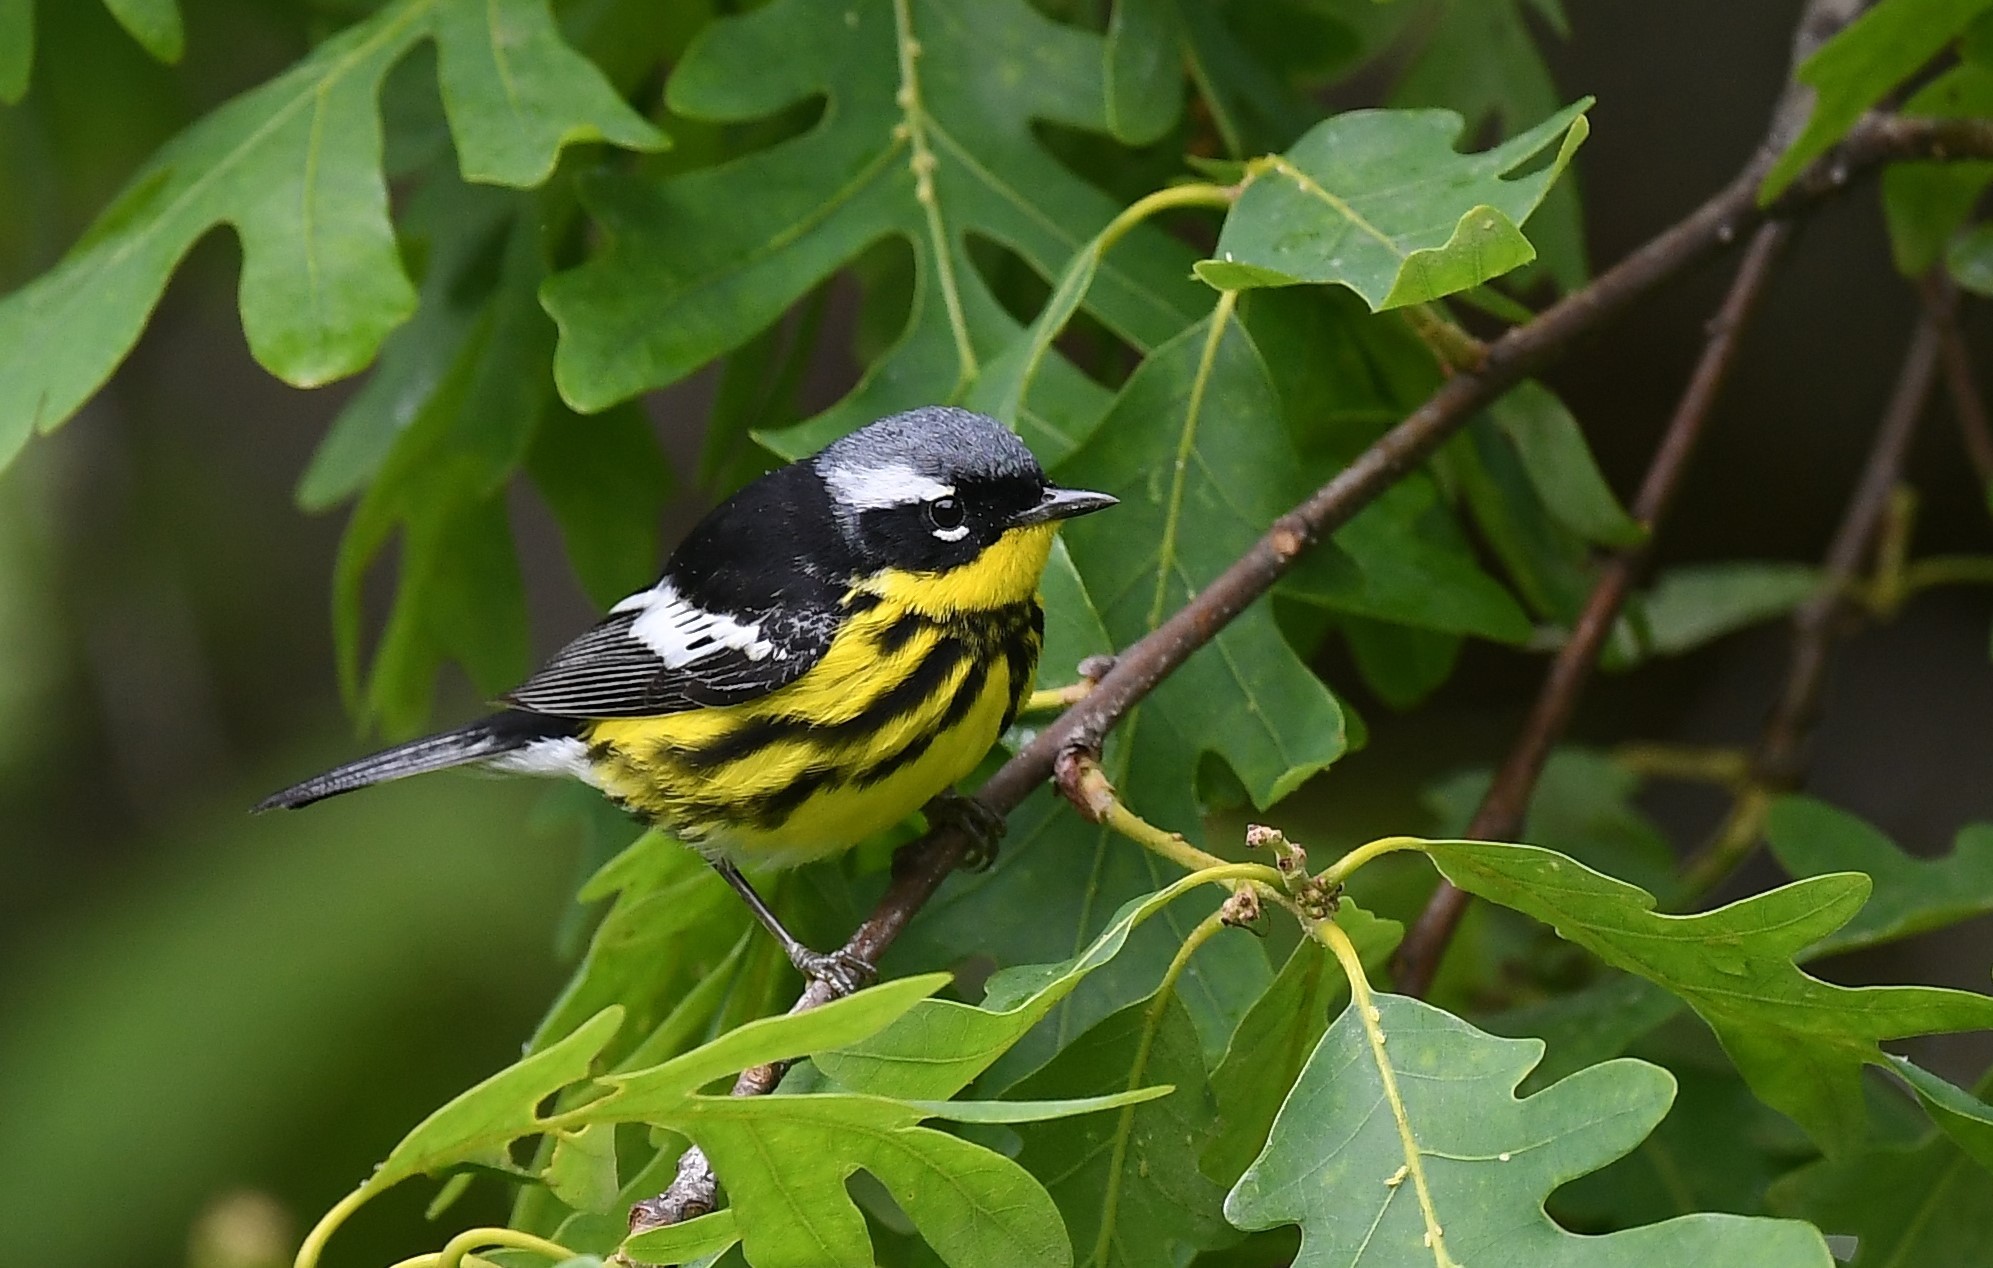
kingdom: Animalia
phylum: Chordata
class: Aves
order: Passeriformes
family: Parulidae
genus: Setophaga
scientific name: Setophaga magnolia
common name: Magnolia warbler
